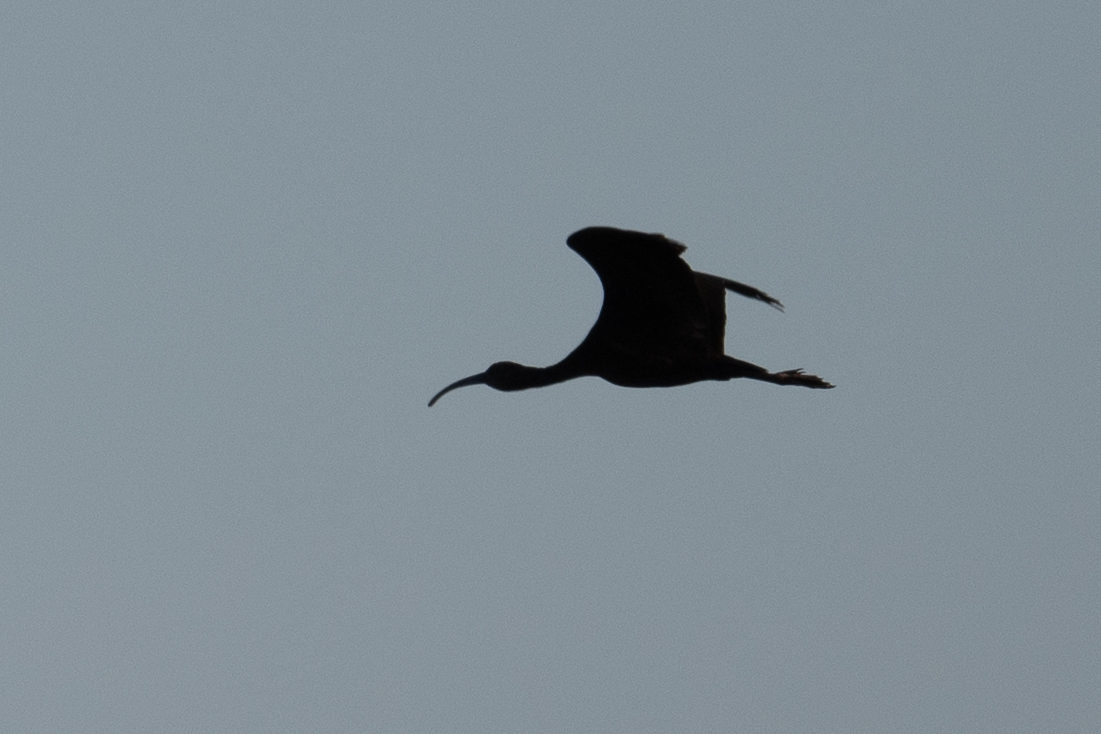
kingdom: Animalia
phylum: Chordata
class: Aves
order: Pelecaniformes
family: Threskiornithidae
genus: Plegadis
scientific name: Plegadis chihi
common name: White-faced ibis
